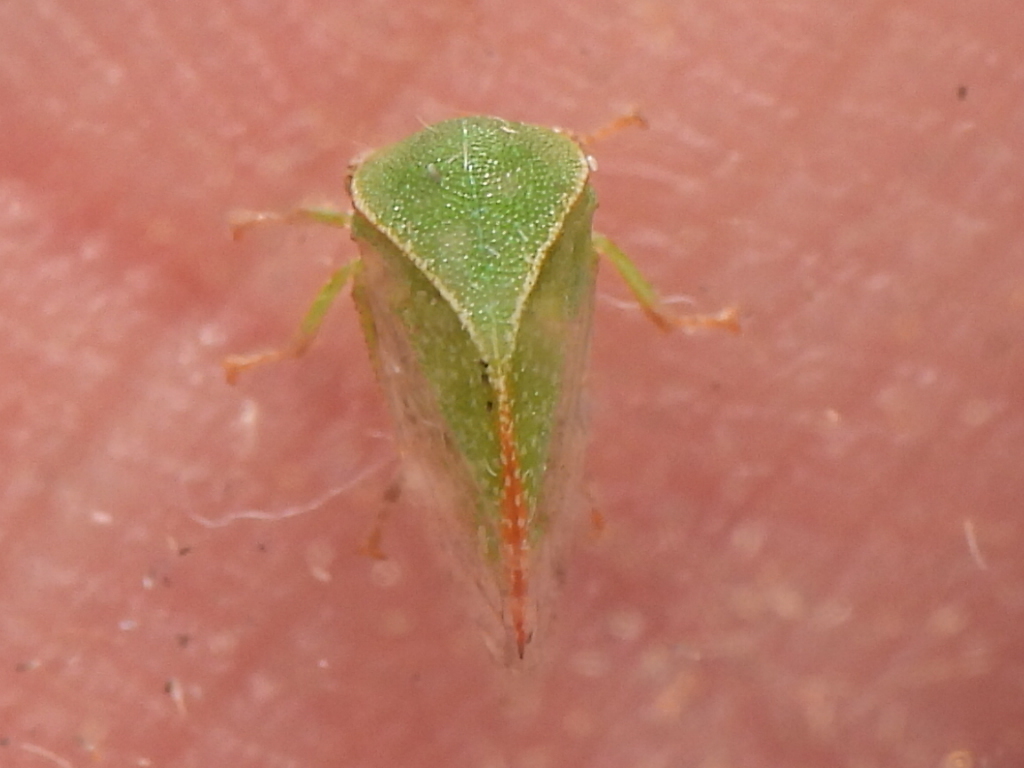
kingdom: Animalia
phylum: Arthropoda
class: Insecta
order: Hemiptera
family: Membracidae
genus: Spissistilus
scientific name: Spissistilus festina
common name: Membracid bug
